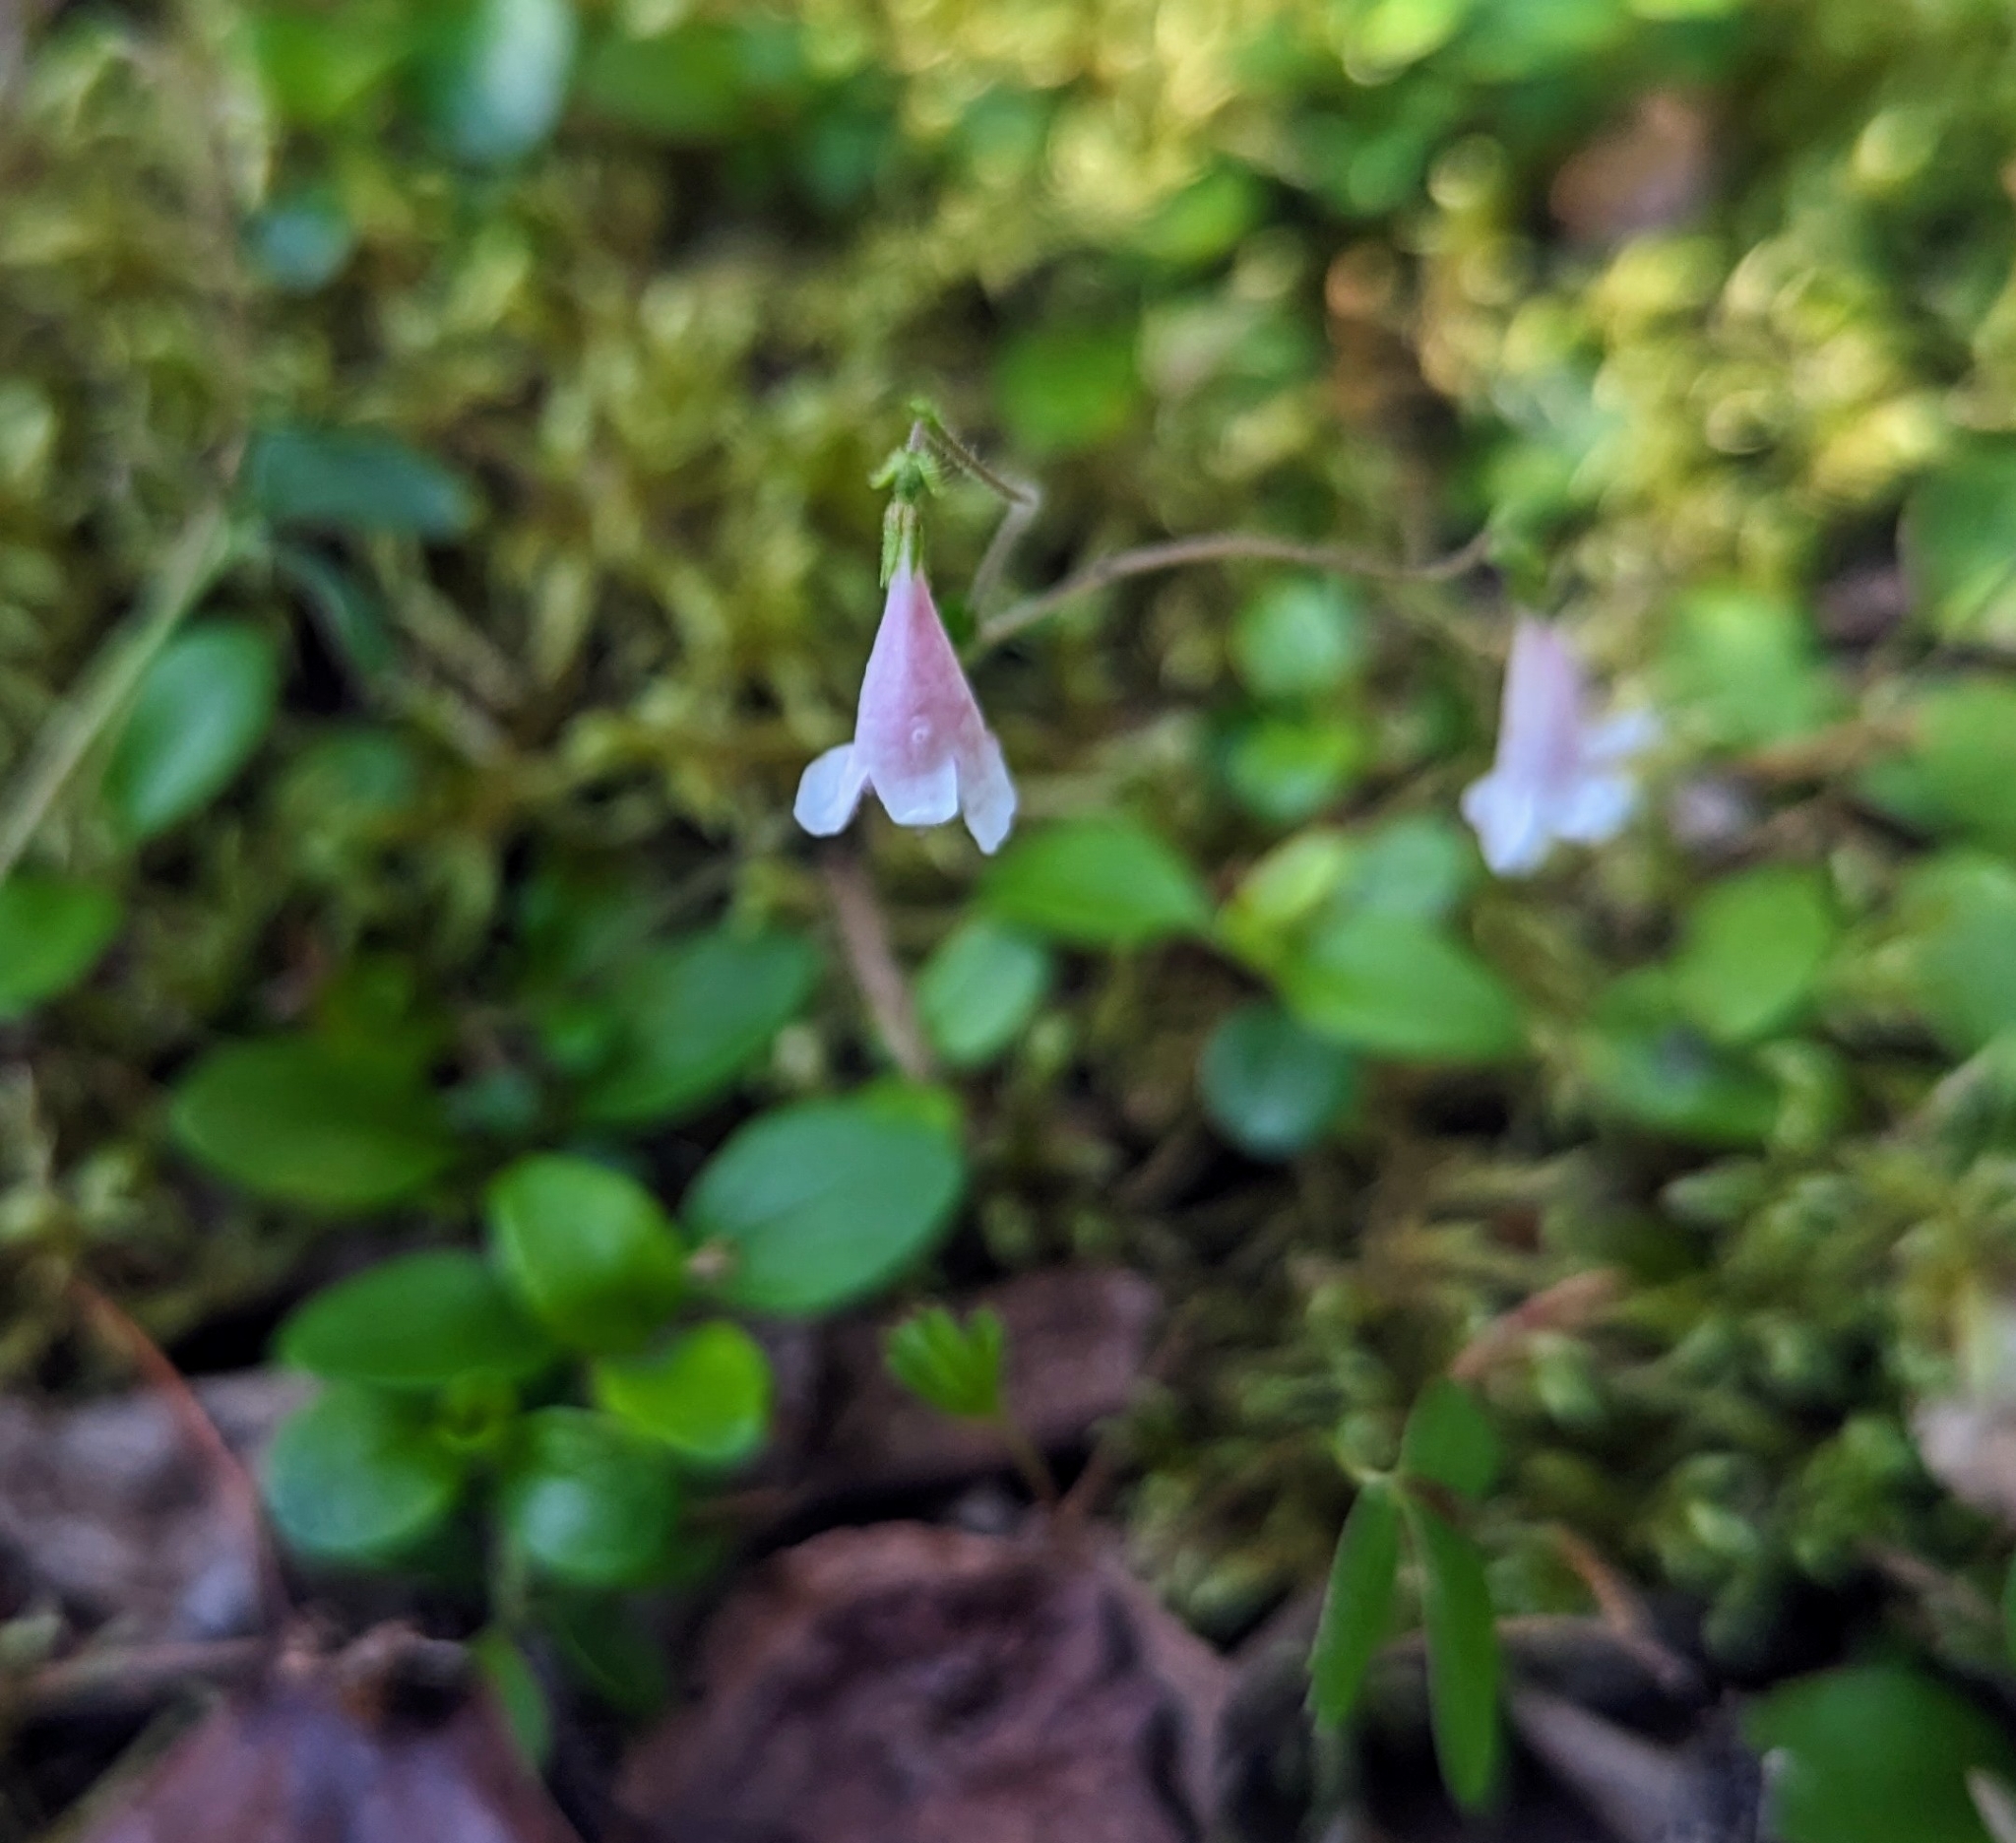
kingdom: Plantae
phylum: Tracheophyta
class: Magnoliopsida
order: Dipsacales
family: Caprifoliaceae
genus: Linnaea
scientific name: Linnaea borealis
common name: Twinflower
